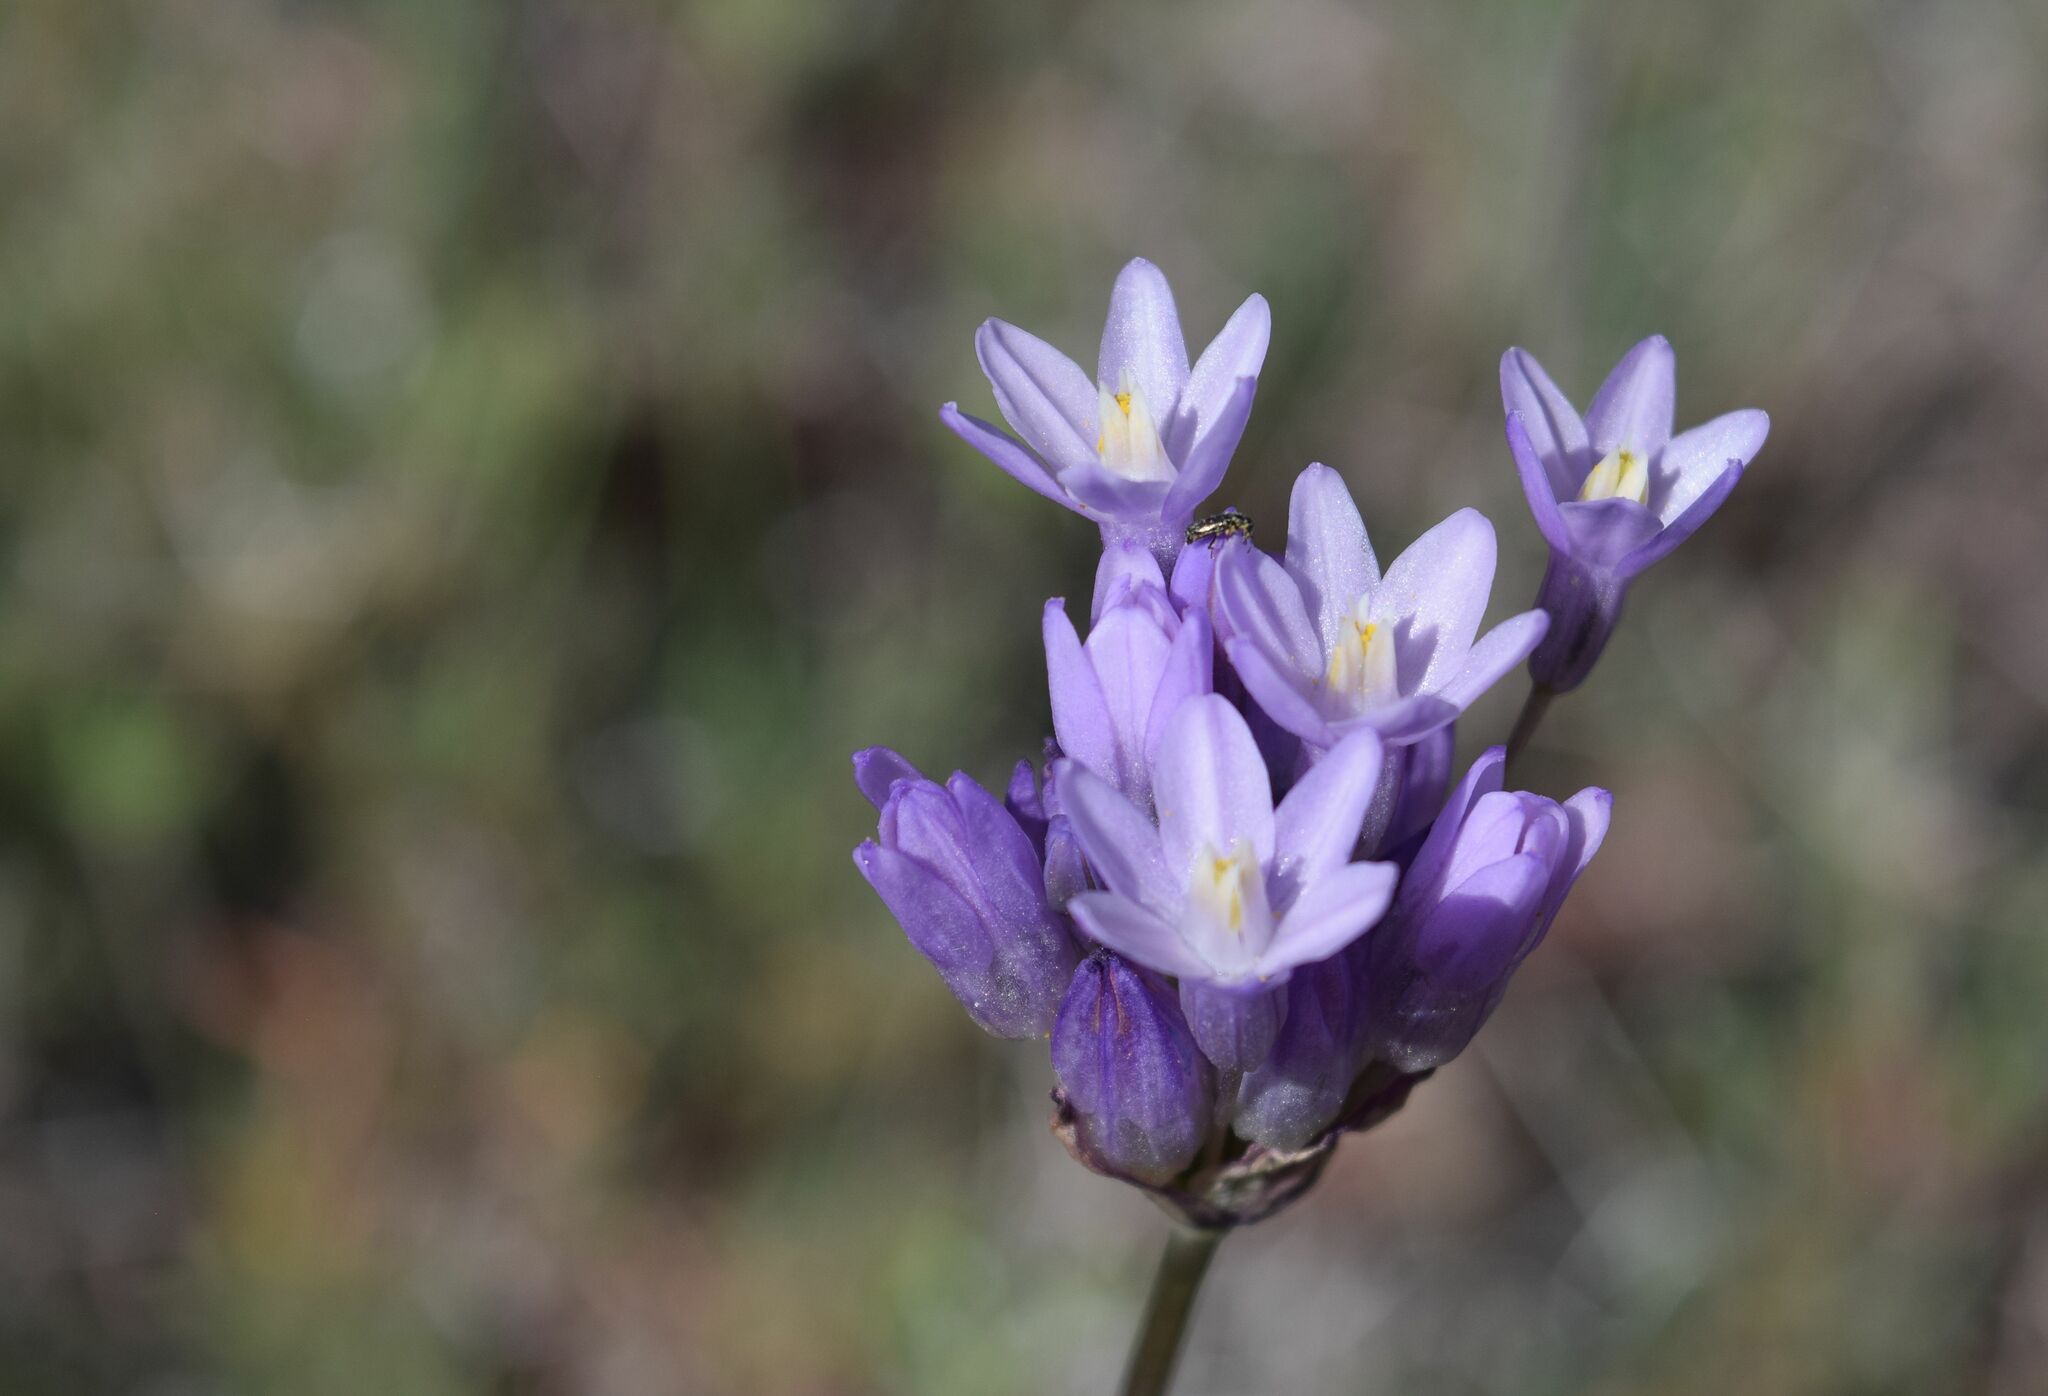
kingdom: Plantae
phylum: Tracheophyta
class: Liliopsida
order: Asparagales
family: Asparagaceae
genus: Dipterostemon
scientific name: Dipterostemon capitatus
